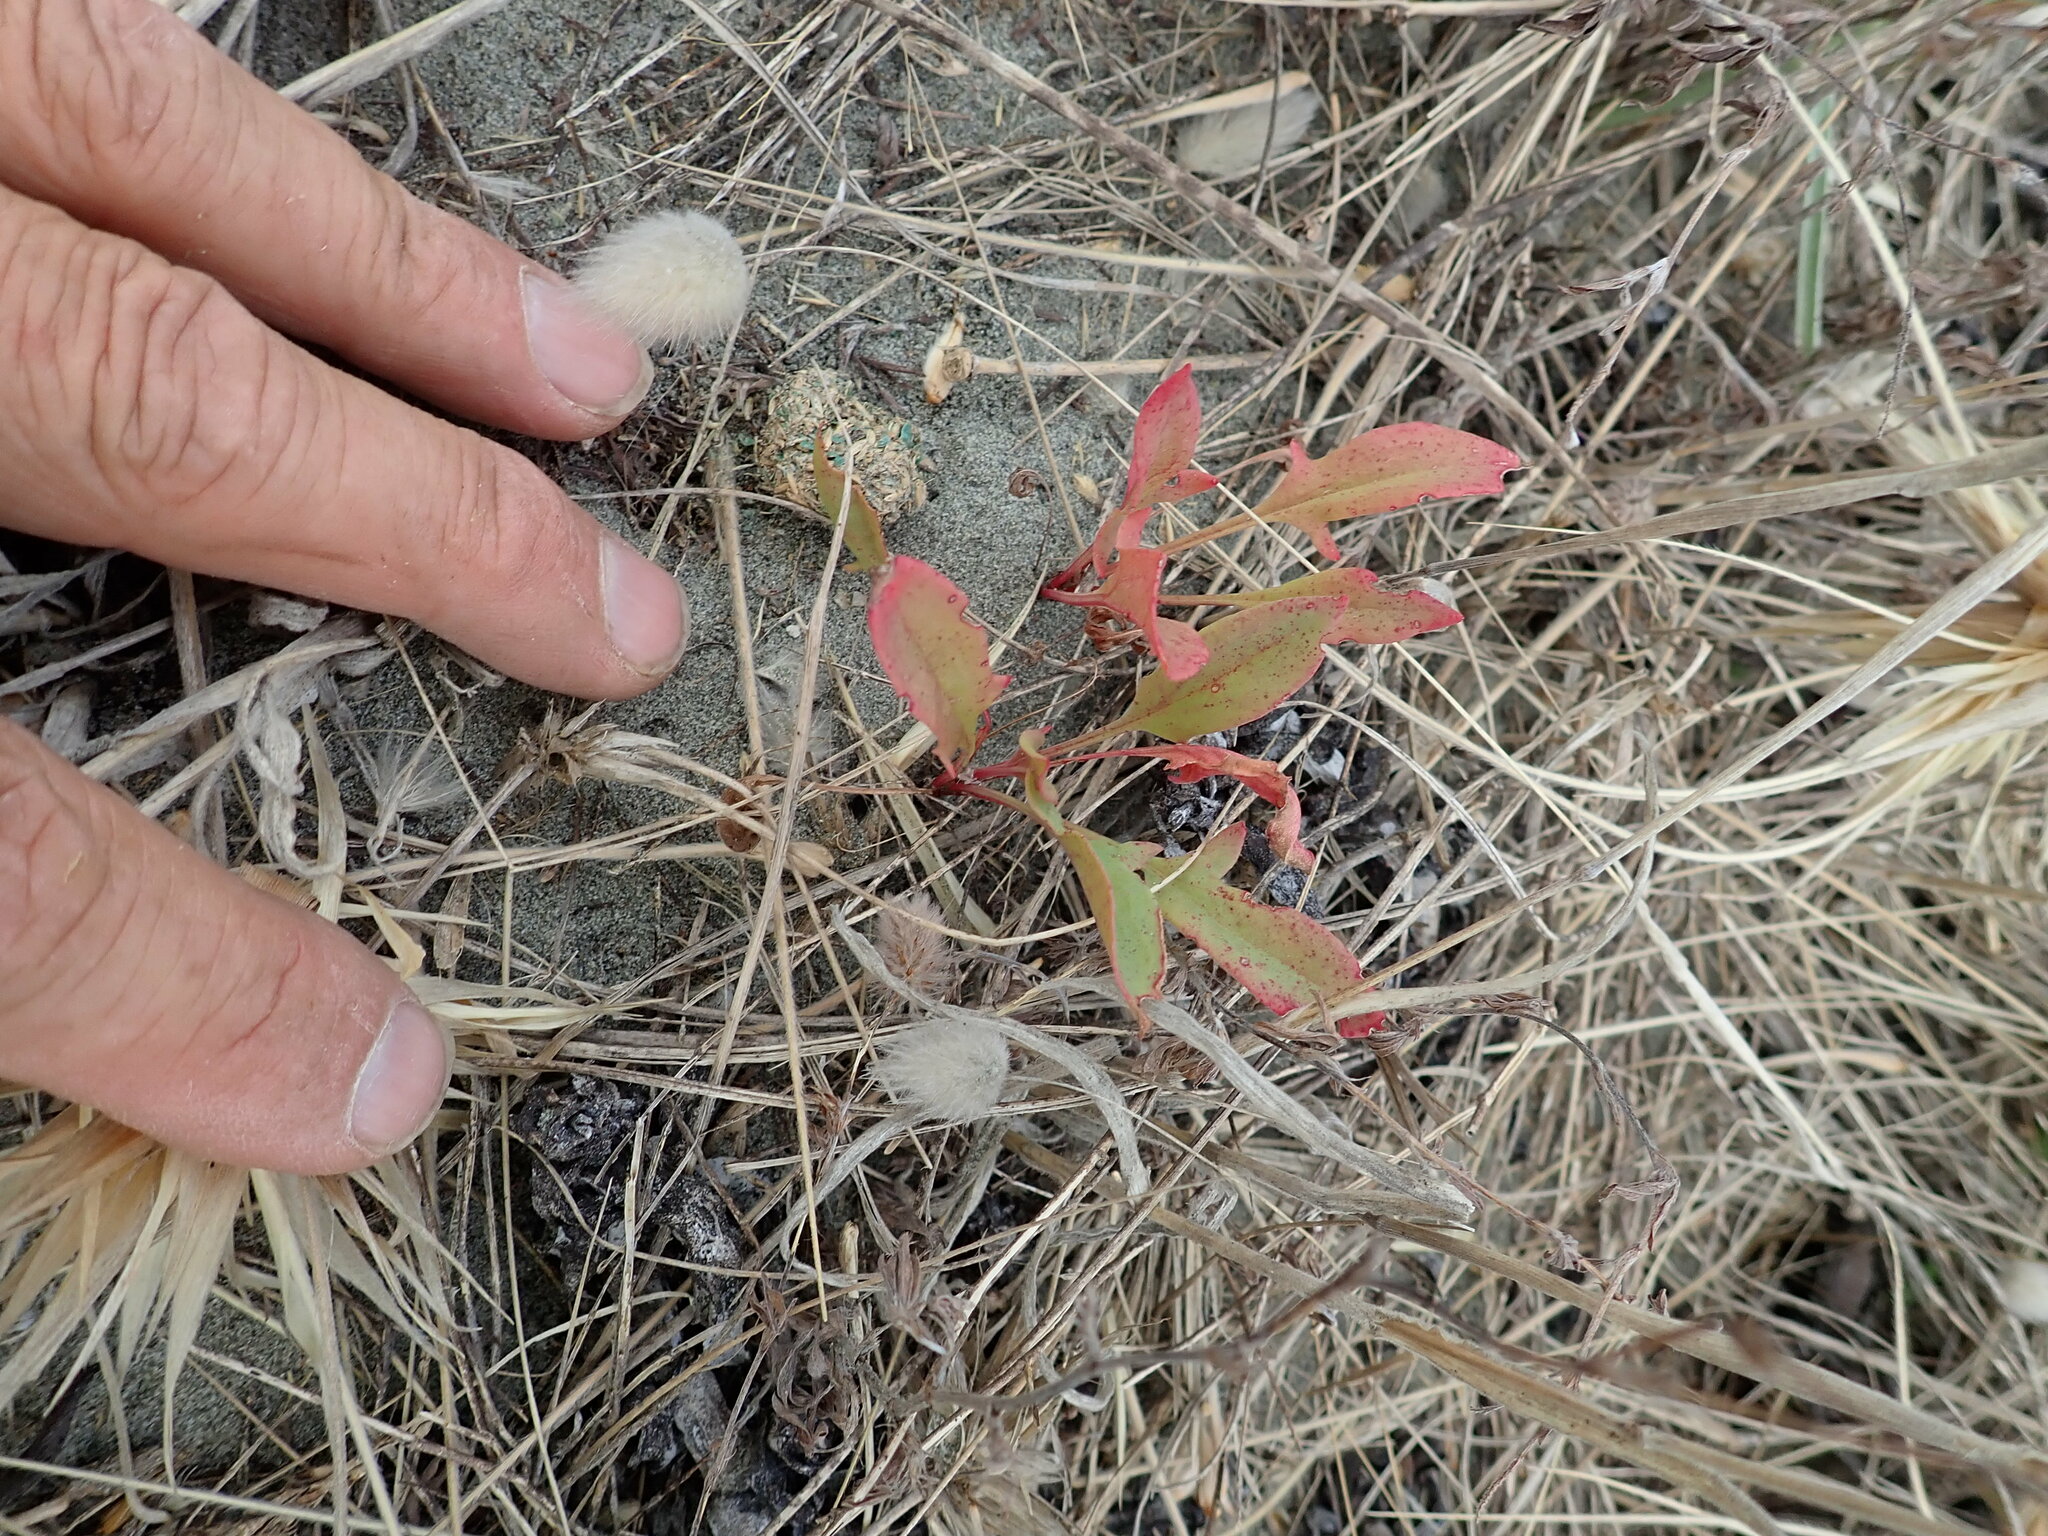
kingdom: Plantae
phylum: Tracheophyta
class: Magnoliopsida
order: Caryophyllales
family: Polygonaceae
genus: Rumex
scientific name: Rumex acetosella
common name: Common sheep sorrel
